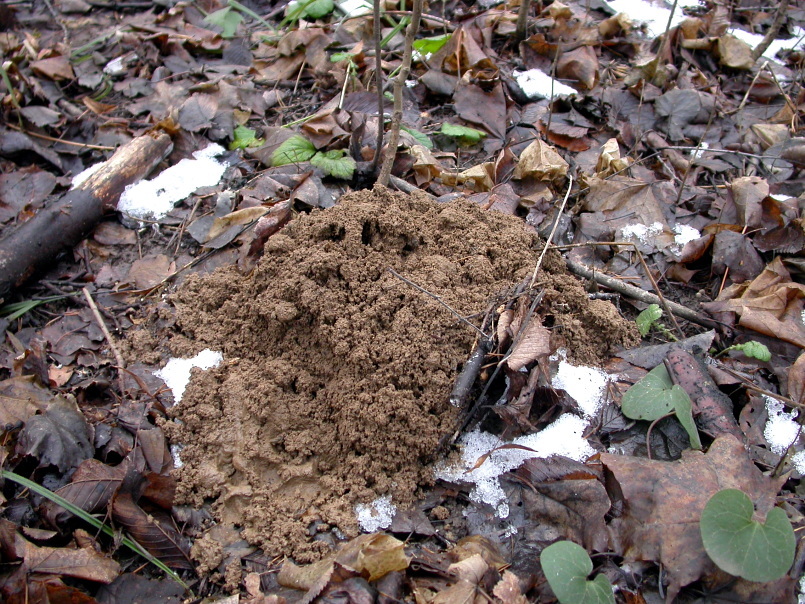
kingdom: Animalia
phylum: Chordata
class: Mammalia
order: Soricomorpha
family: Talpidae
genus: Talpa
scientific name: Talpa europaea
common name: European mole
